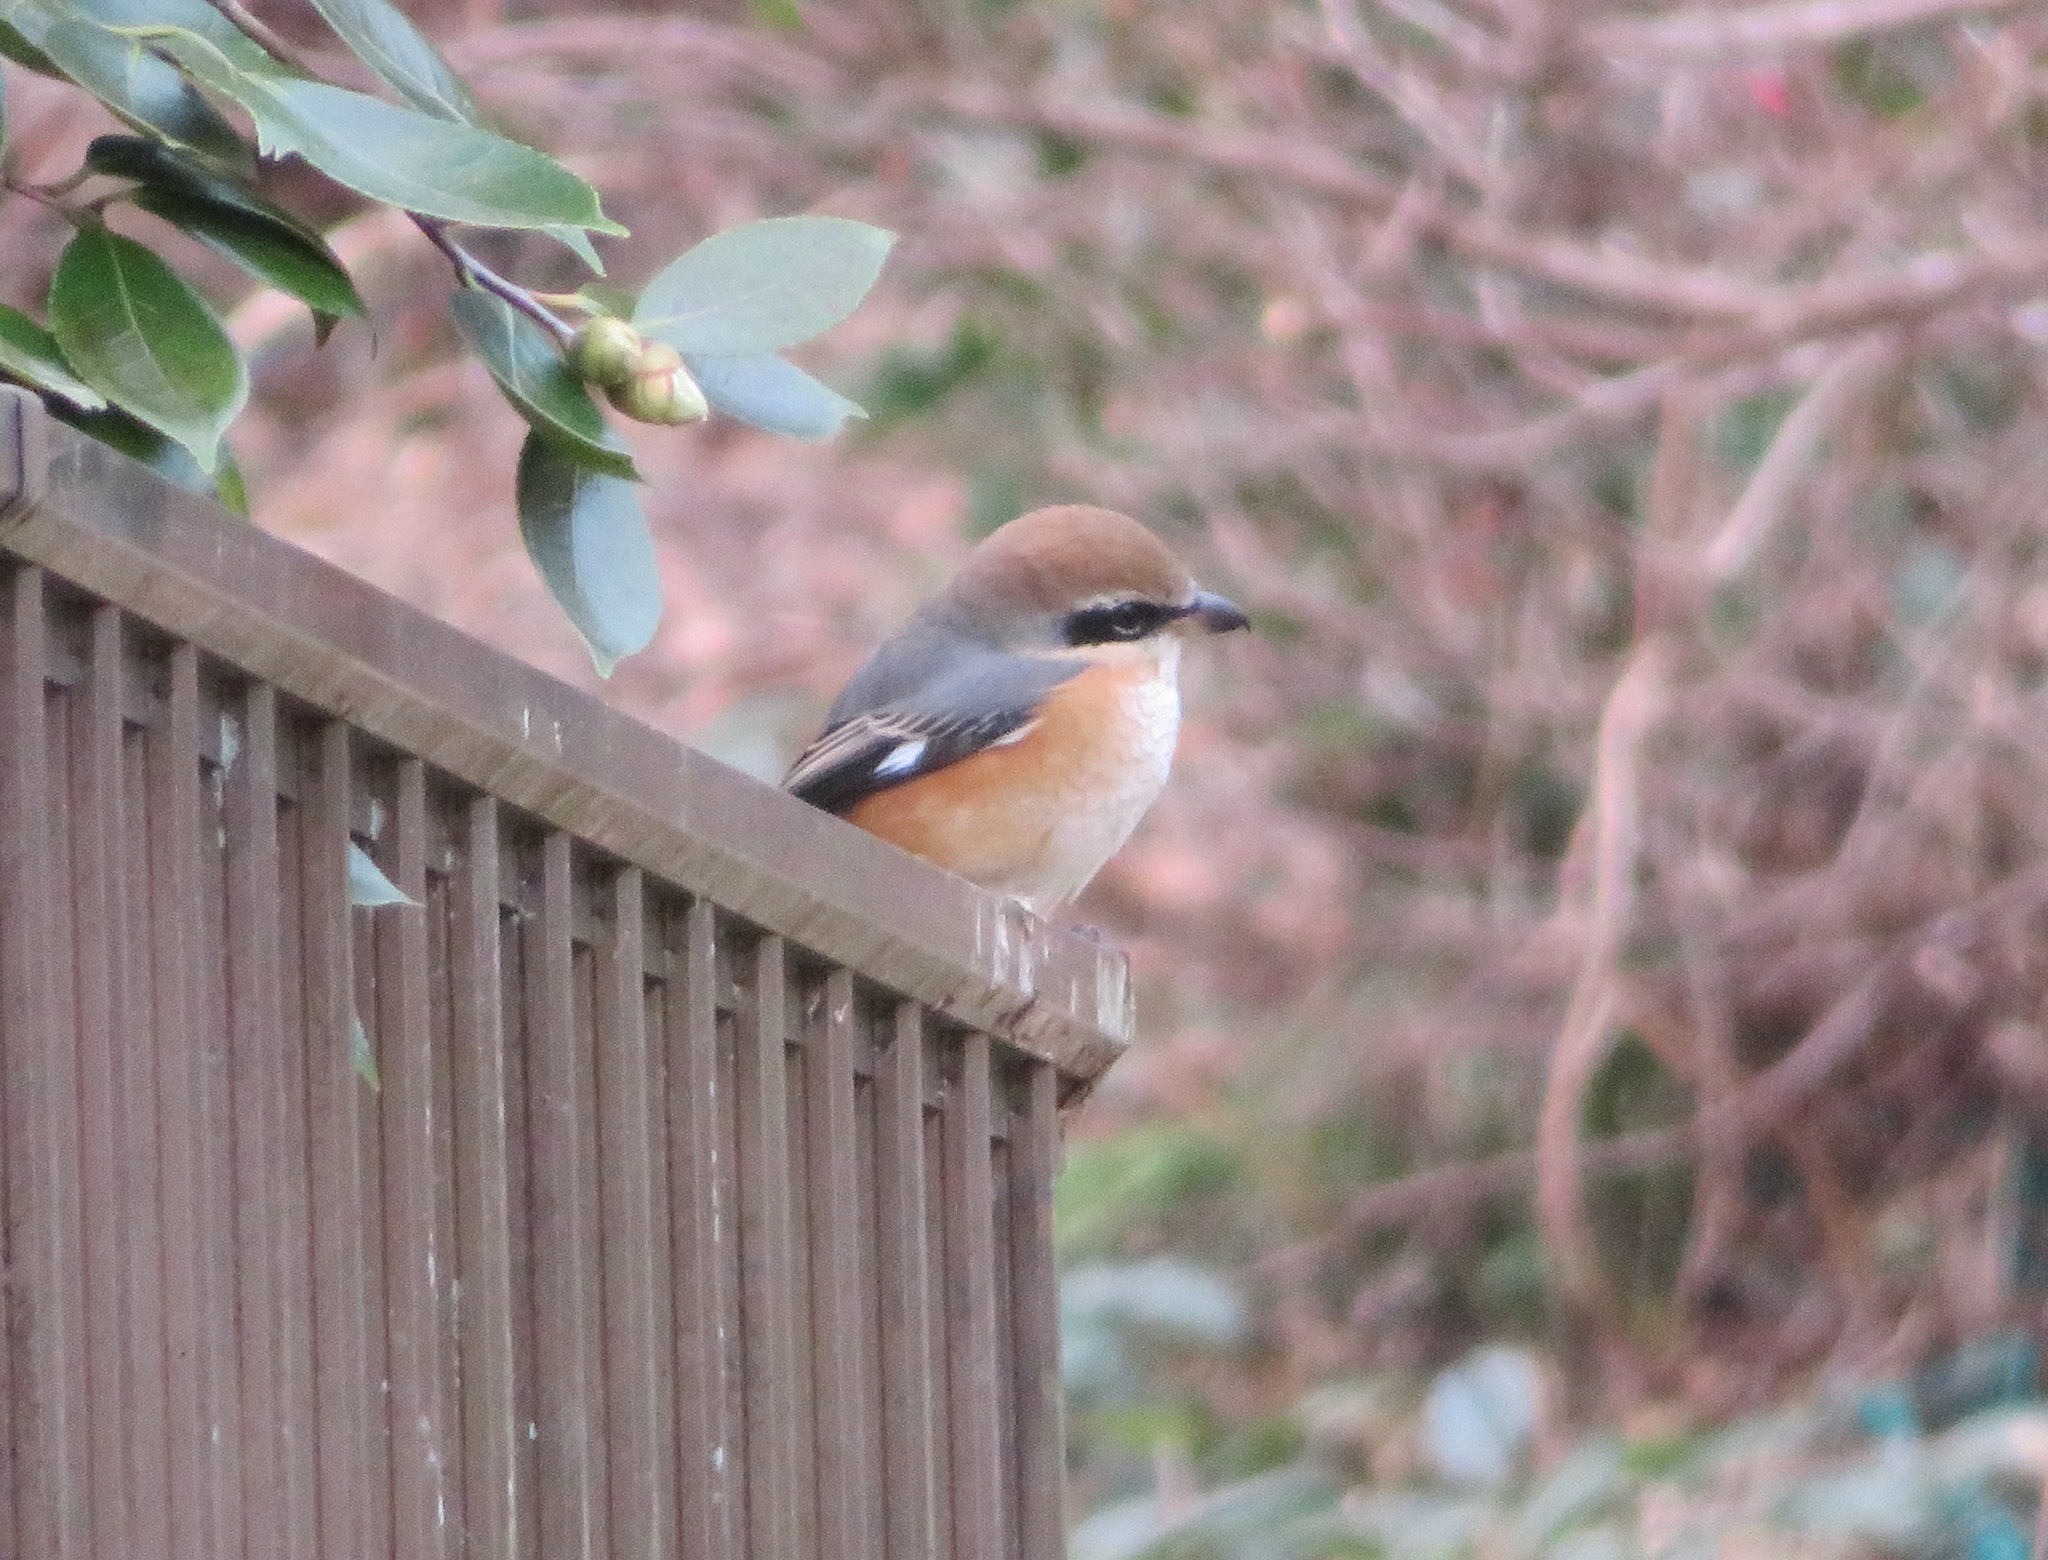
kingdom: Animalia
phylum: Chordata
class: Aves
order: Passeriformes
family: Laniidae
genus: Lanius
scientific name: Lanius bucephalus
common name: Bull-headed shrike
